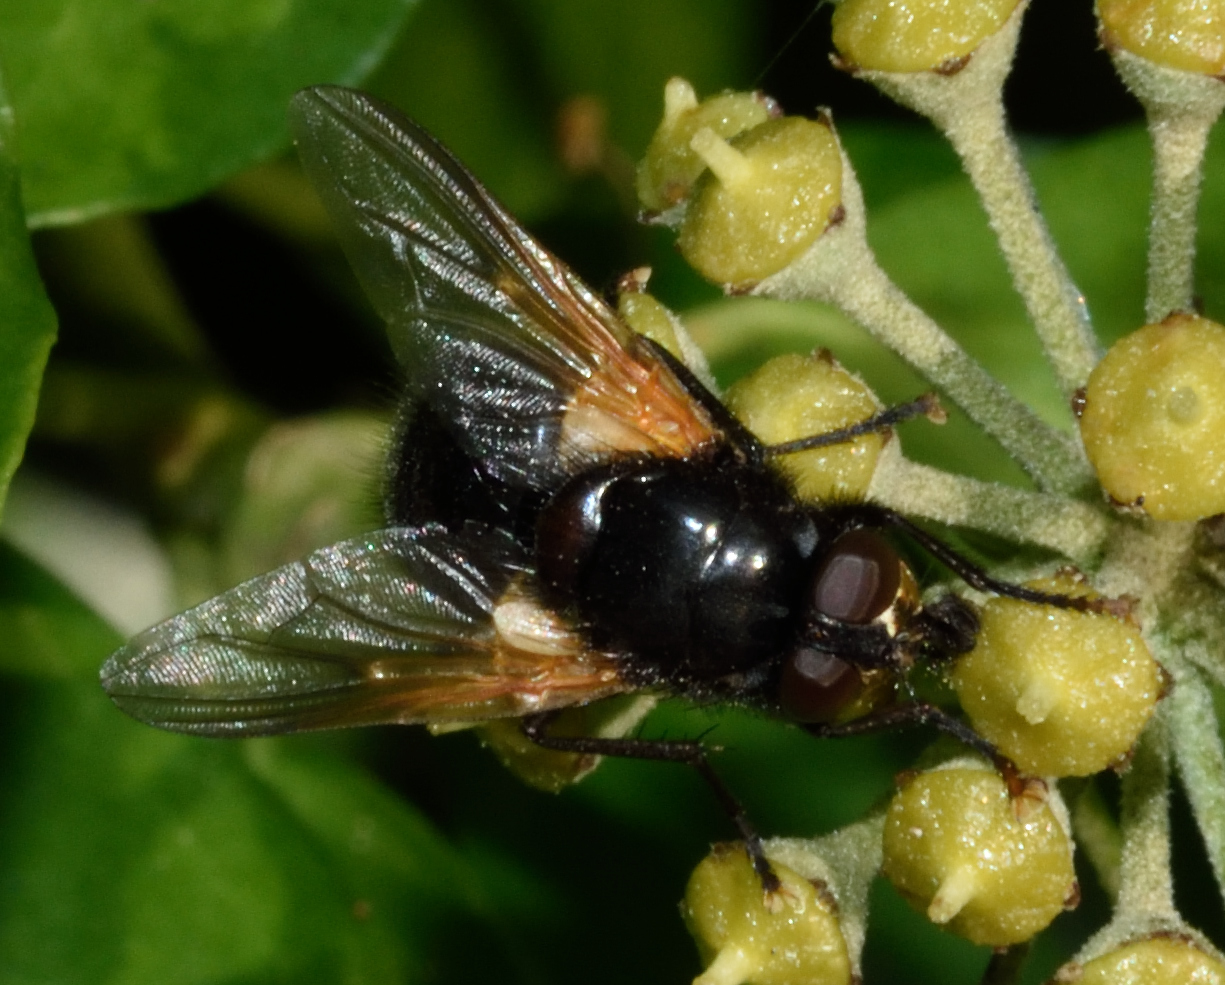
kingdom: Animalia
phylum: Arthropoda
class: Insecta
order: Diptera
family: Muscidae
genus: Mesembrina
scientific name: Mesembrina meridiana
